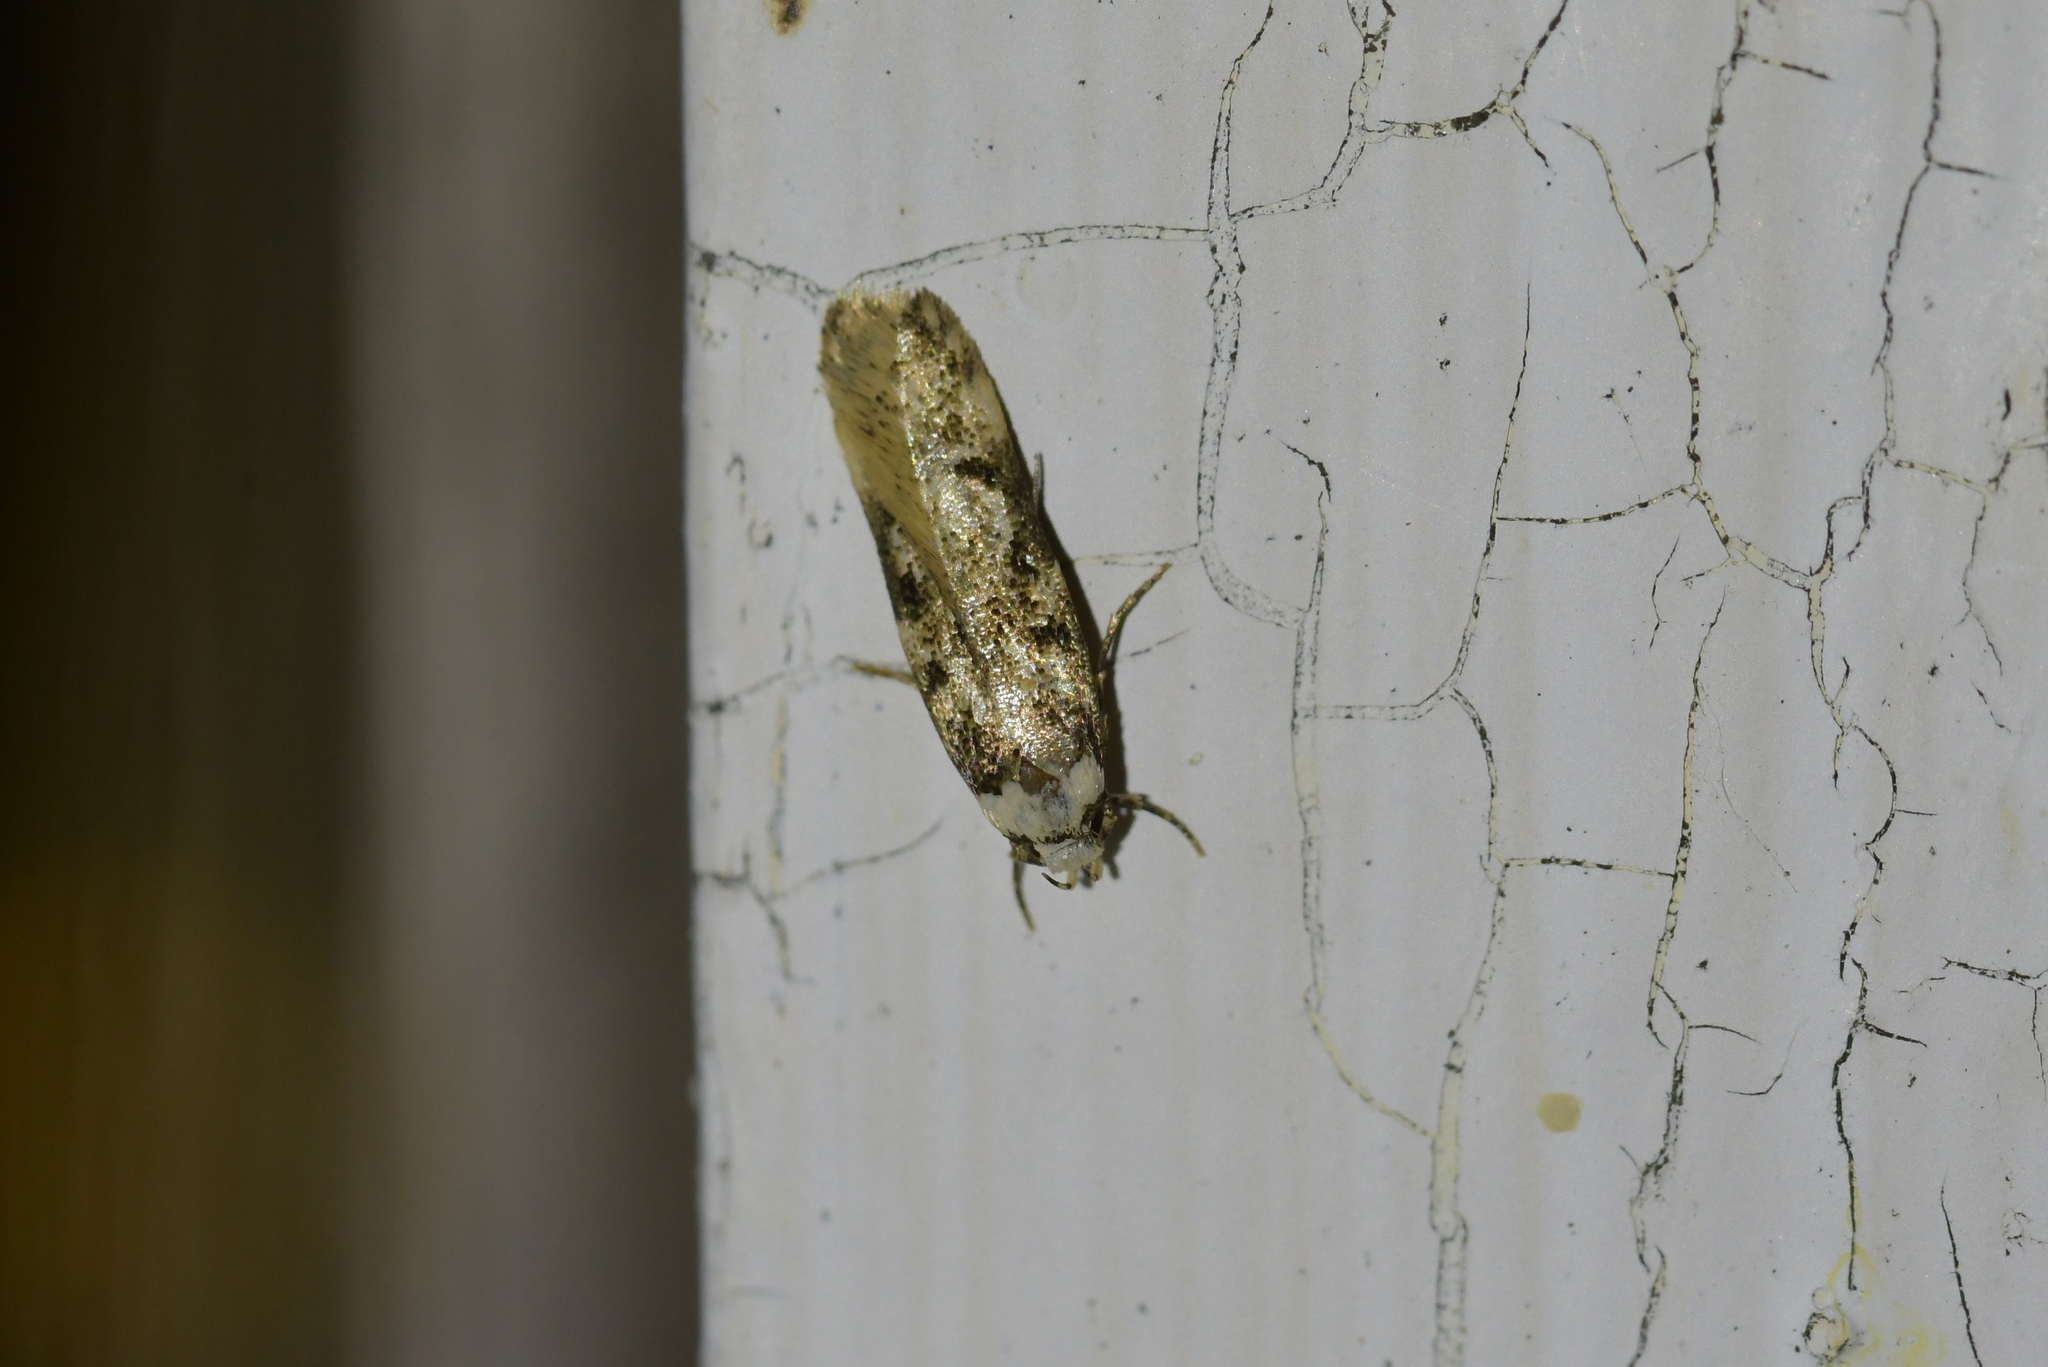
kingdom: Animalia
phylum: Arthropoda
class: Insecta
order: Lepidoptera
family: Oecophoridae
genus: Endrosis
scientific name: Endrosis sarcitrella
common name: White-shouldered house moth
